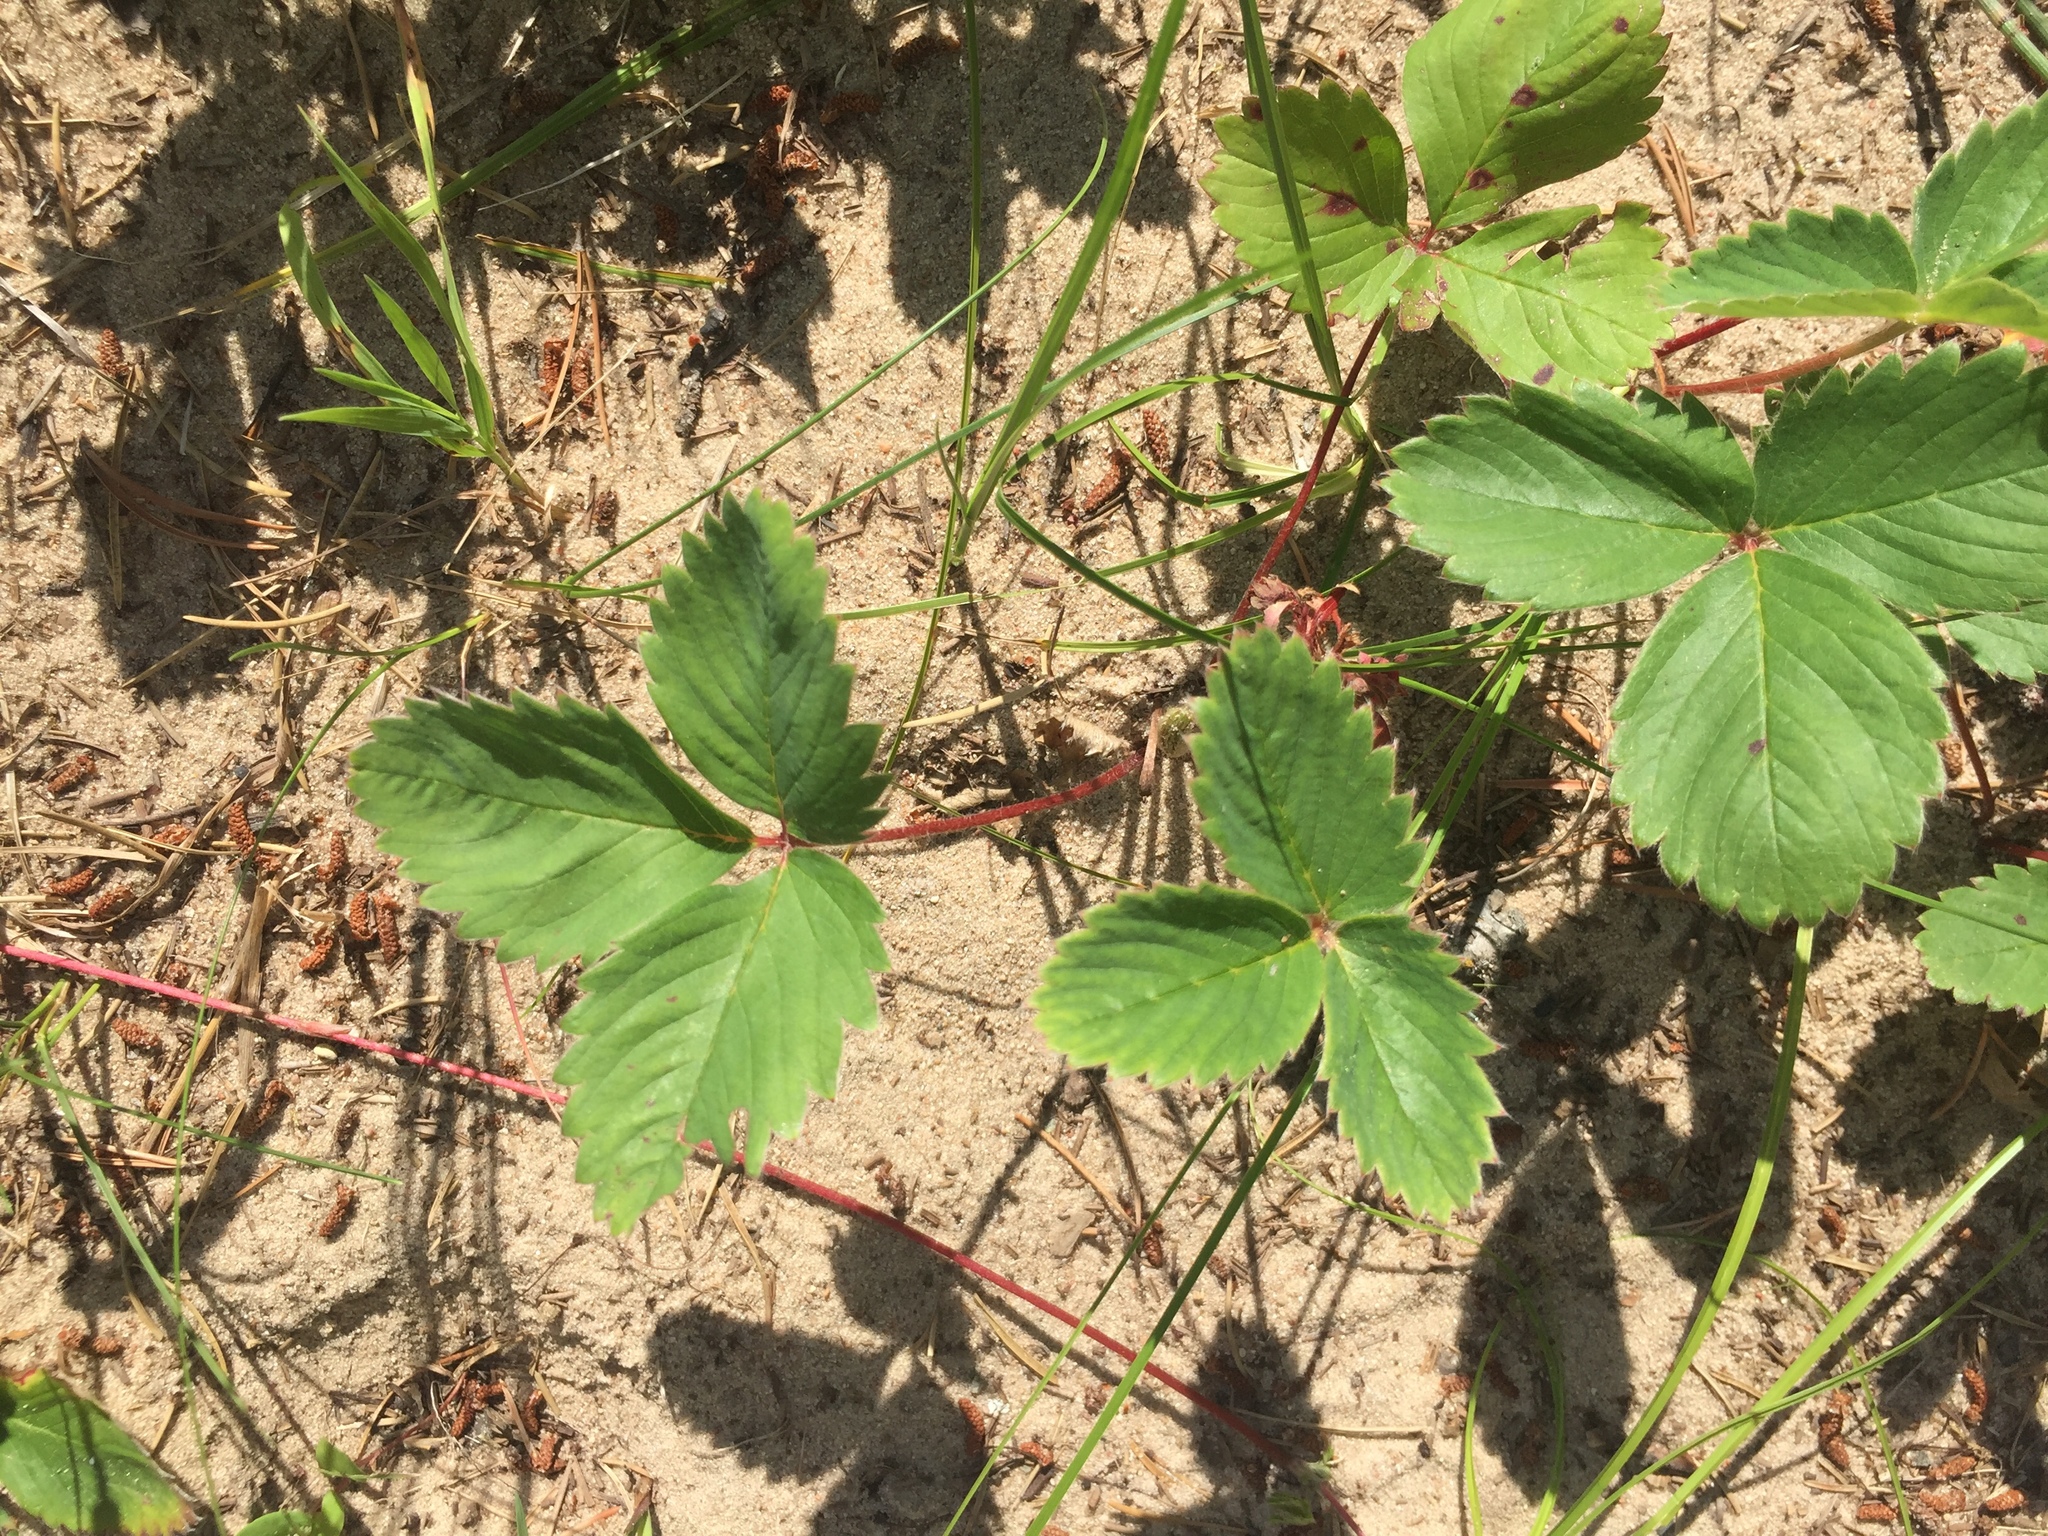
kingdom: Plantae
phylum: Tracheophyta
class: Magnoliopsida
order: Rosales
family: Rosaceae
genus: Fragaria
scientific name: Fragaria virginiana
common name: Thickleaved wild strawberry
